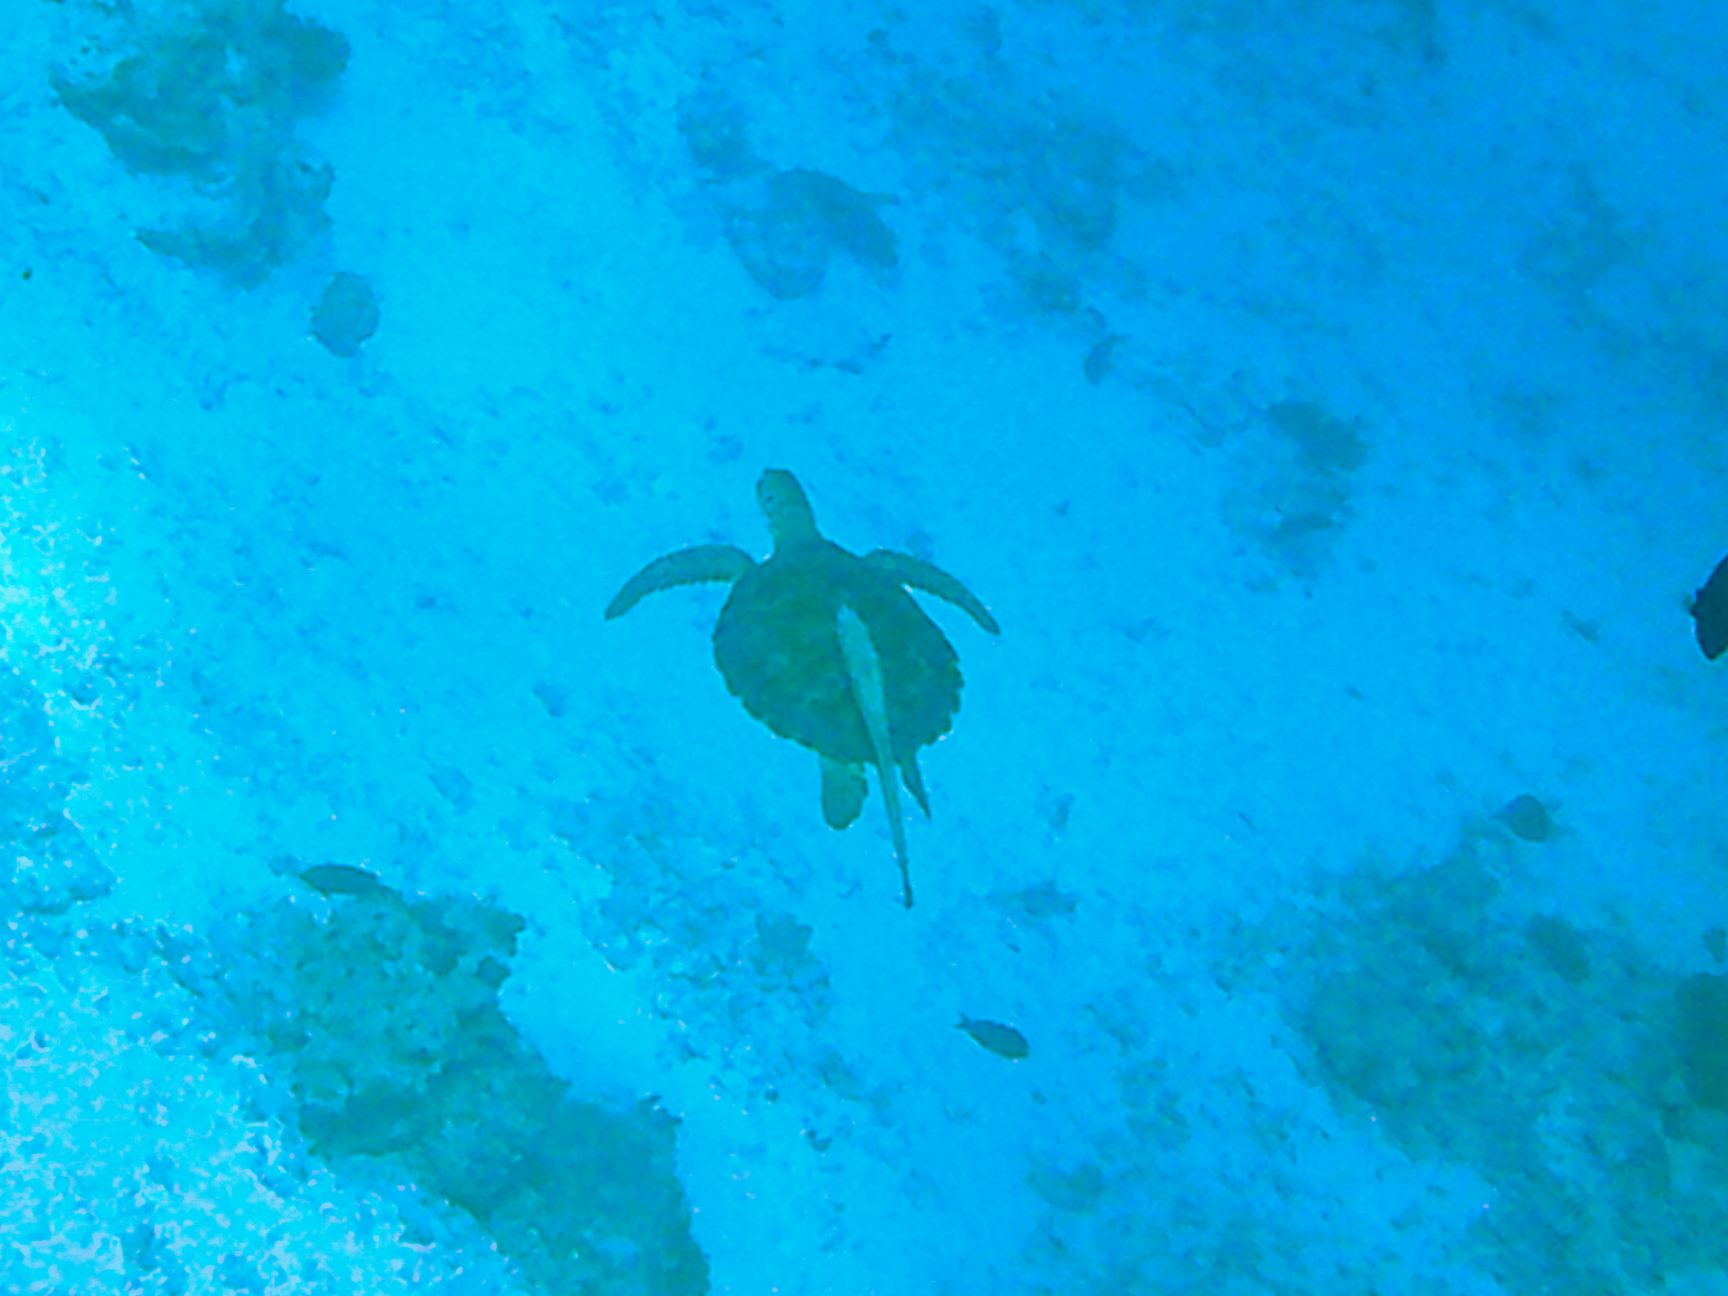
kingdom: Animalia
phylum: Chordata
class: Testudines
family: Cheloniidae
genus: Chelonia
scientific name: Chelonia mydas
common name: Green turtle
